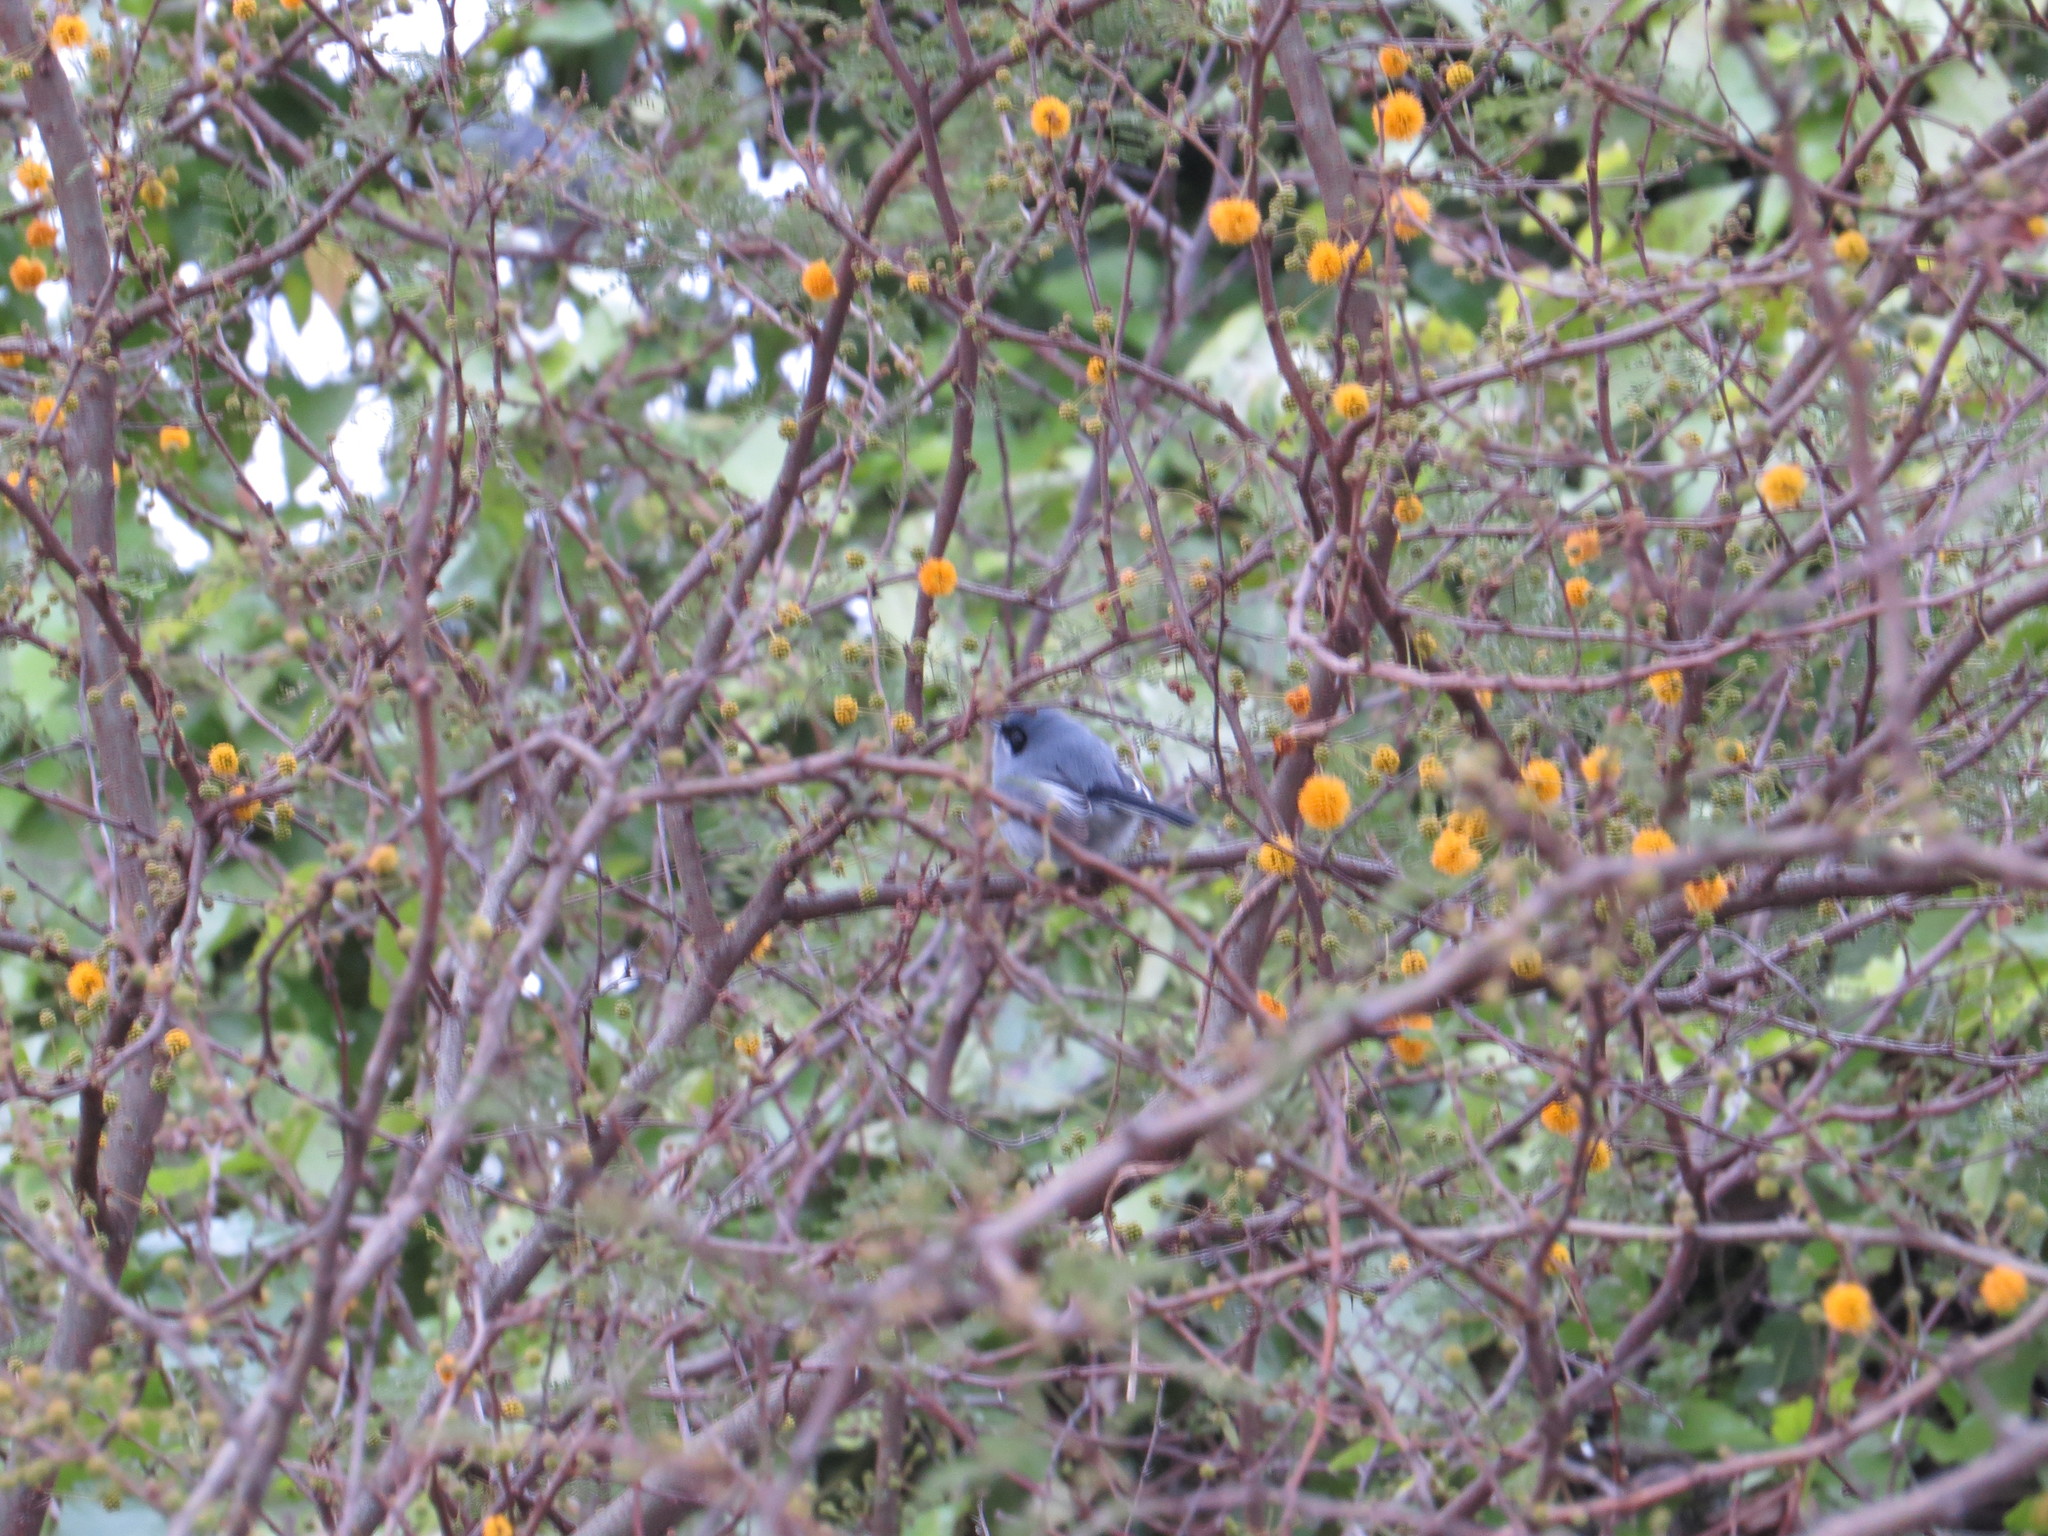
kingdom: Animalia
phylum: Chordata
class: Aves
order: Passeriformes
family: Polioptilidae
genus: Polioptila
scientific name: Polioptila dumicola
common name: Masked gnatcatcher
